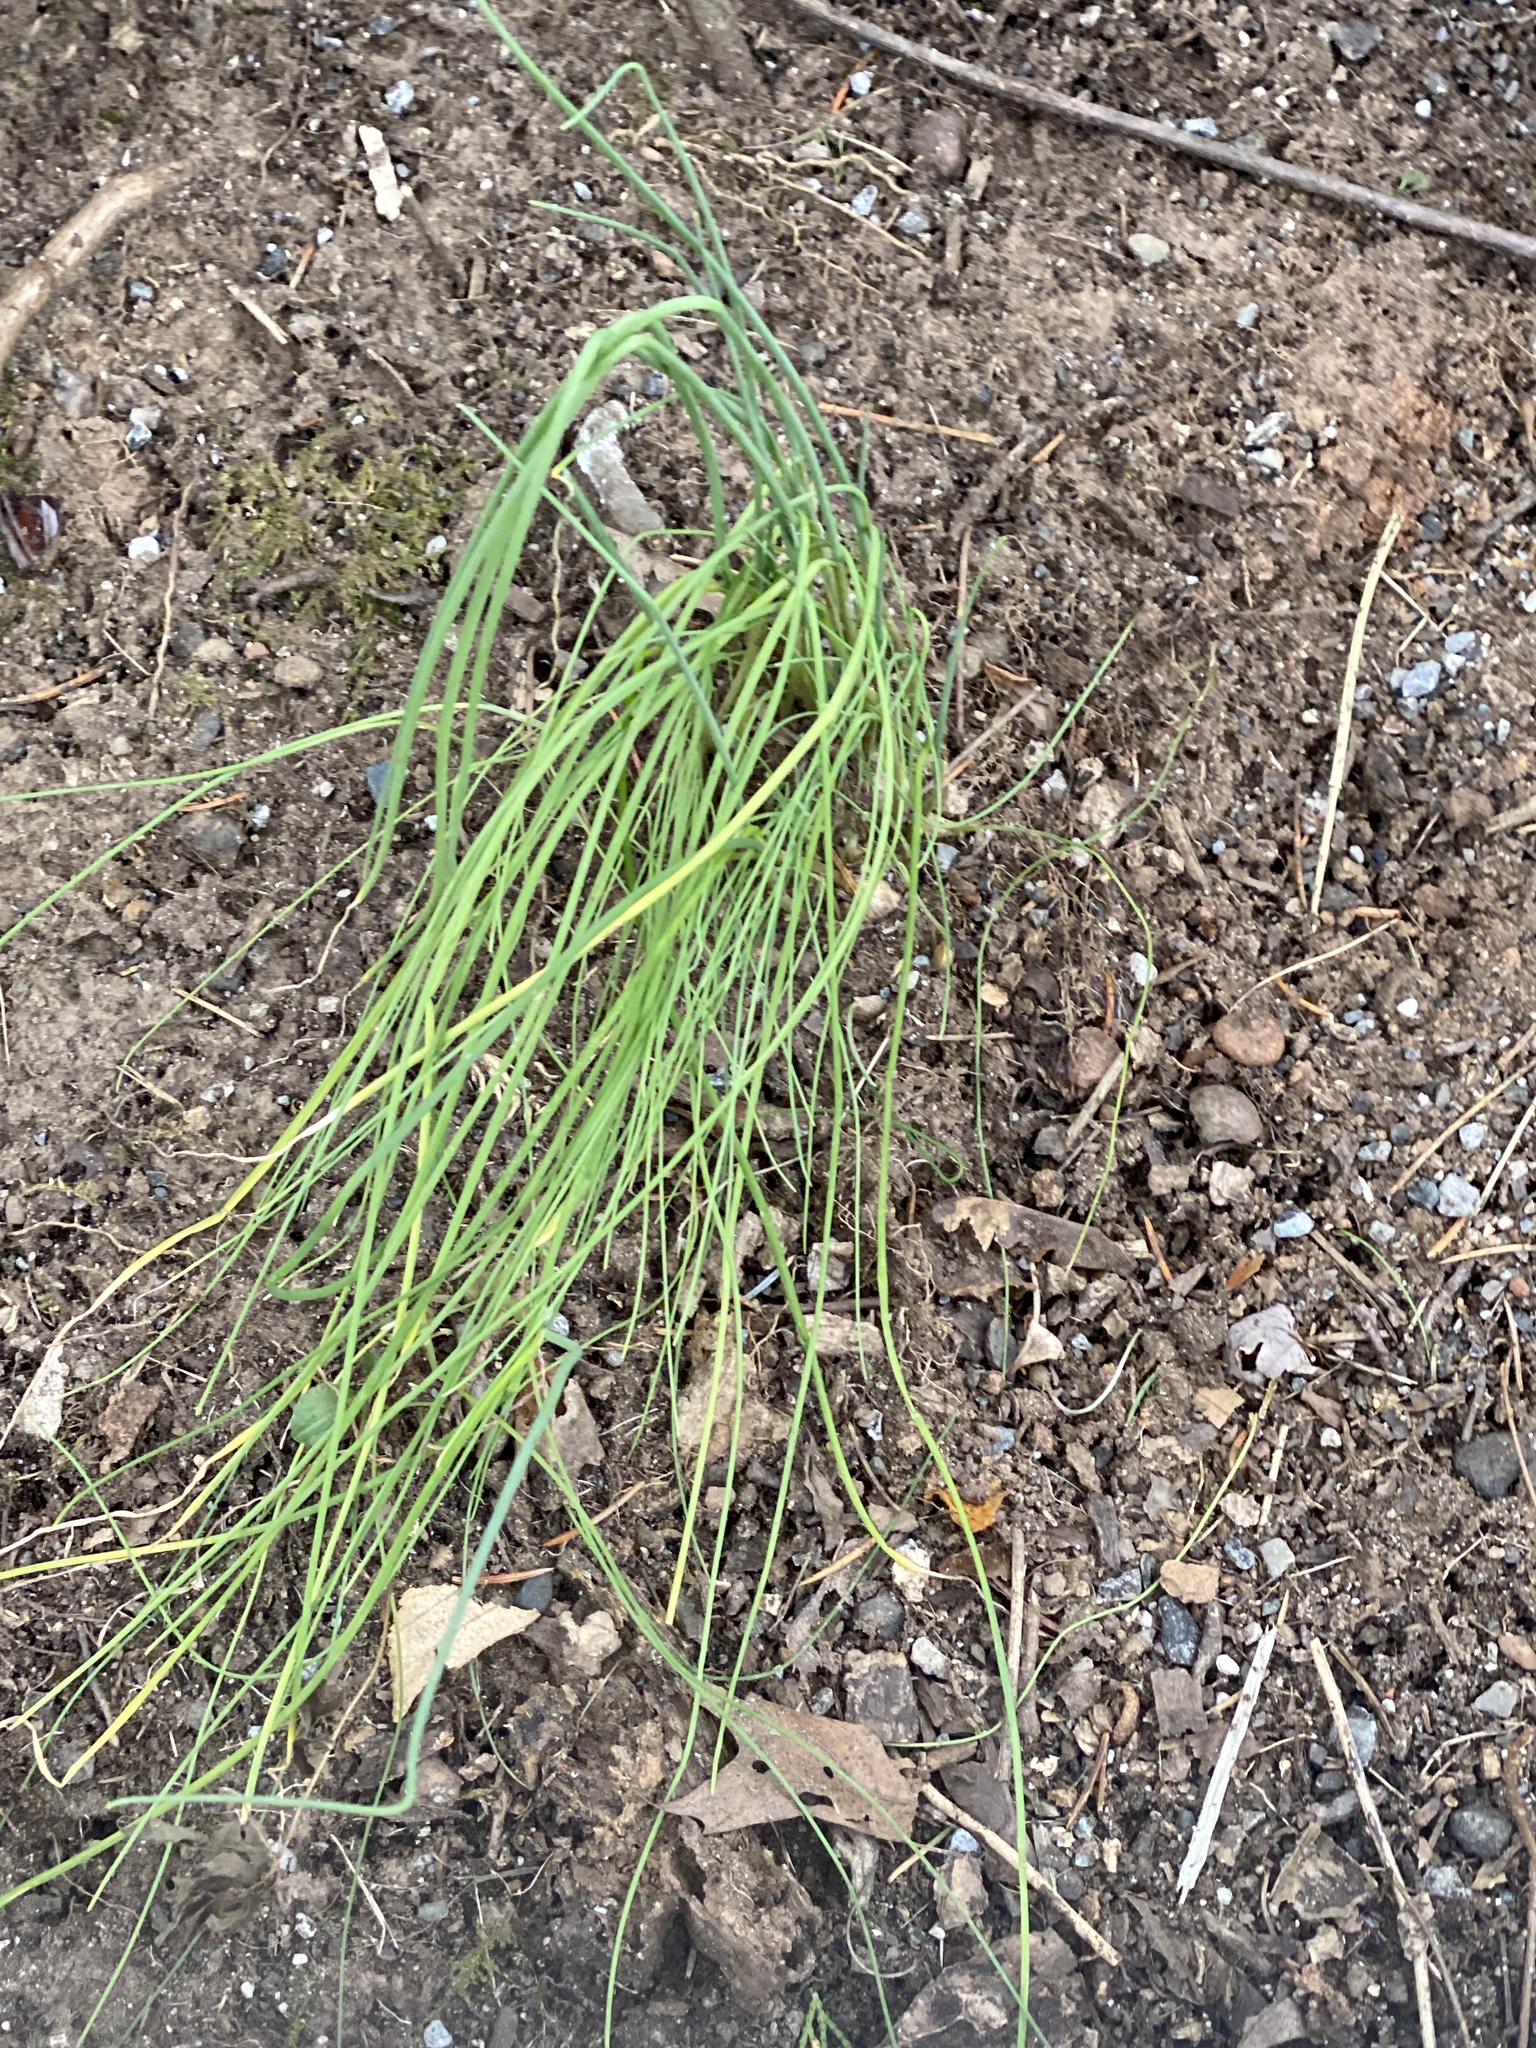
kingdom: Plantae
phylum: Tracheophyta
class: Liliopsida
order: Asparagales
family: Amaryllidaceae
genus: Allium
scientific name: Allium vineale
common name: Crow garlic
